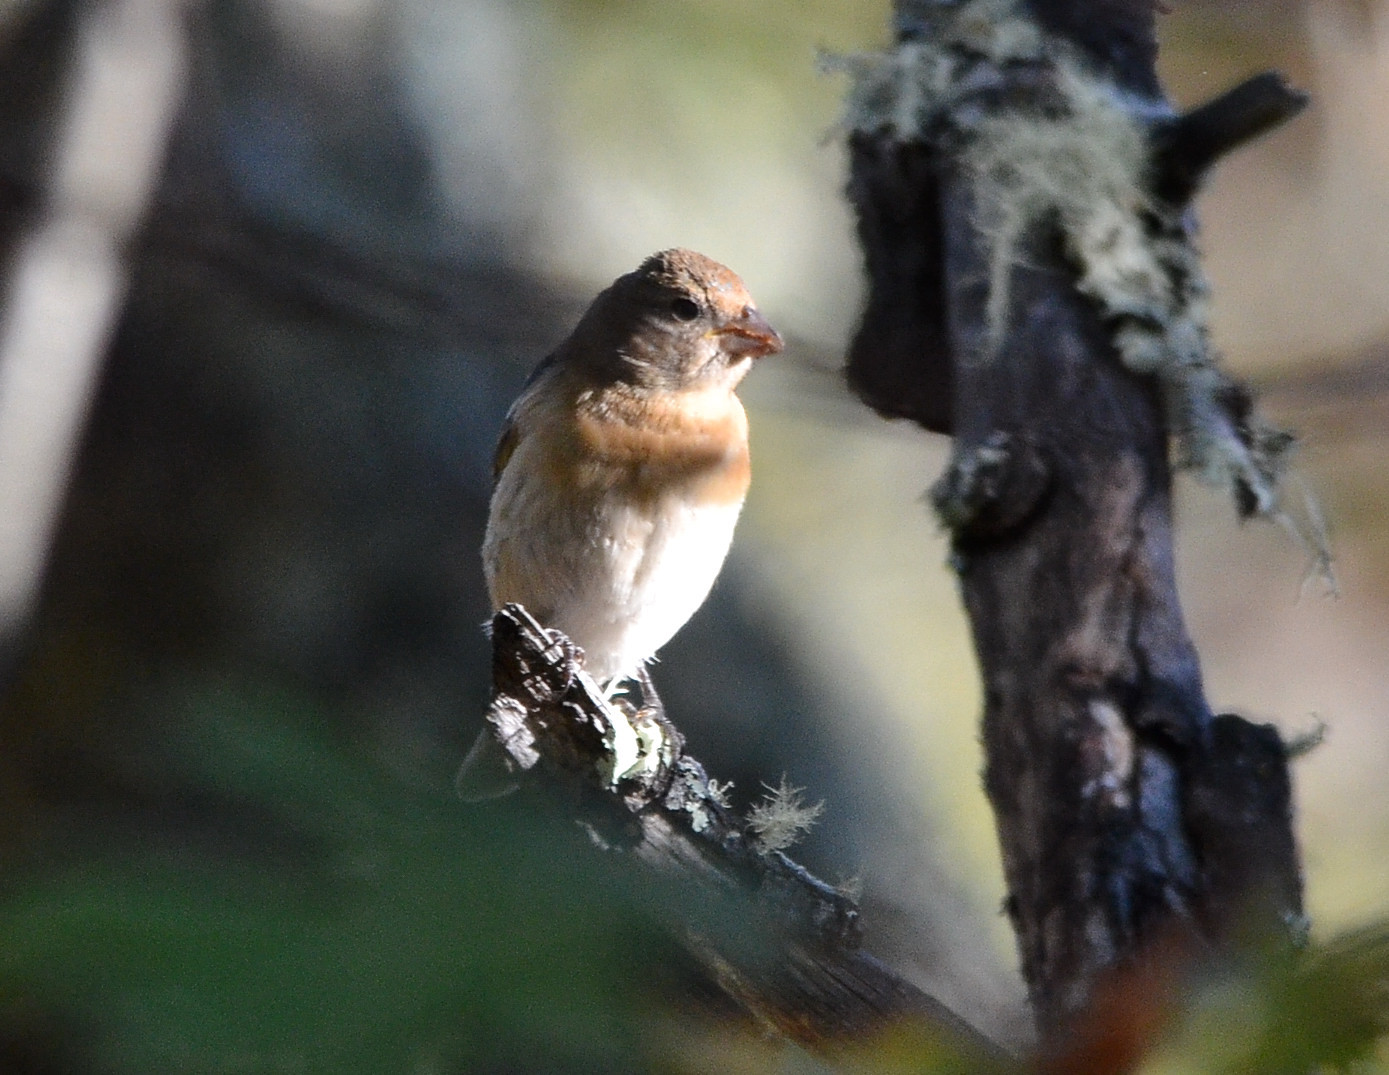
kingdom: Animalia
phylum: Chordata
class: Aves
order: Passeriformes
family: Cardinalidae
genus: Passerina
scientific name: Passerina amoena
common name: Lazuli bunting
